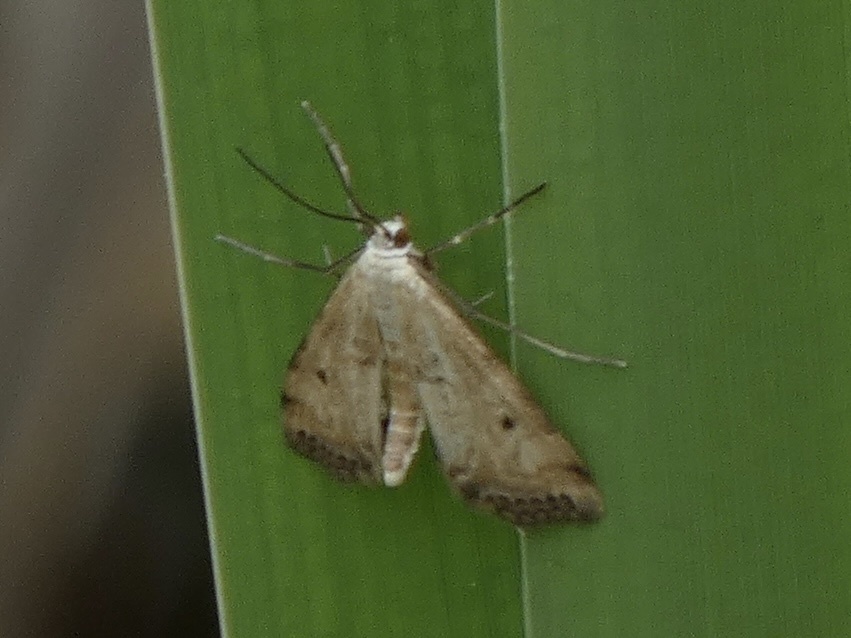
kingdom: Animalia
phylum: Arthropoda
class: Insecta
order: Lepidoptera
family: Crambidae
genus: Cataclysta
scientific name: Cataclysta lemnata
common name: Small china-mark
